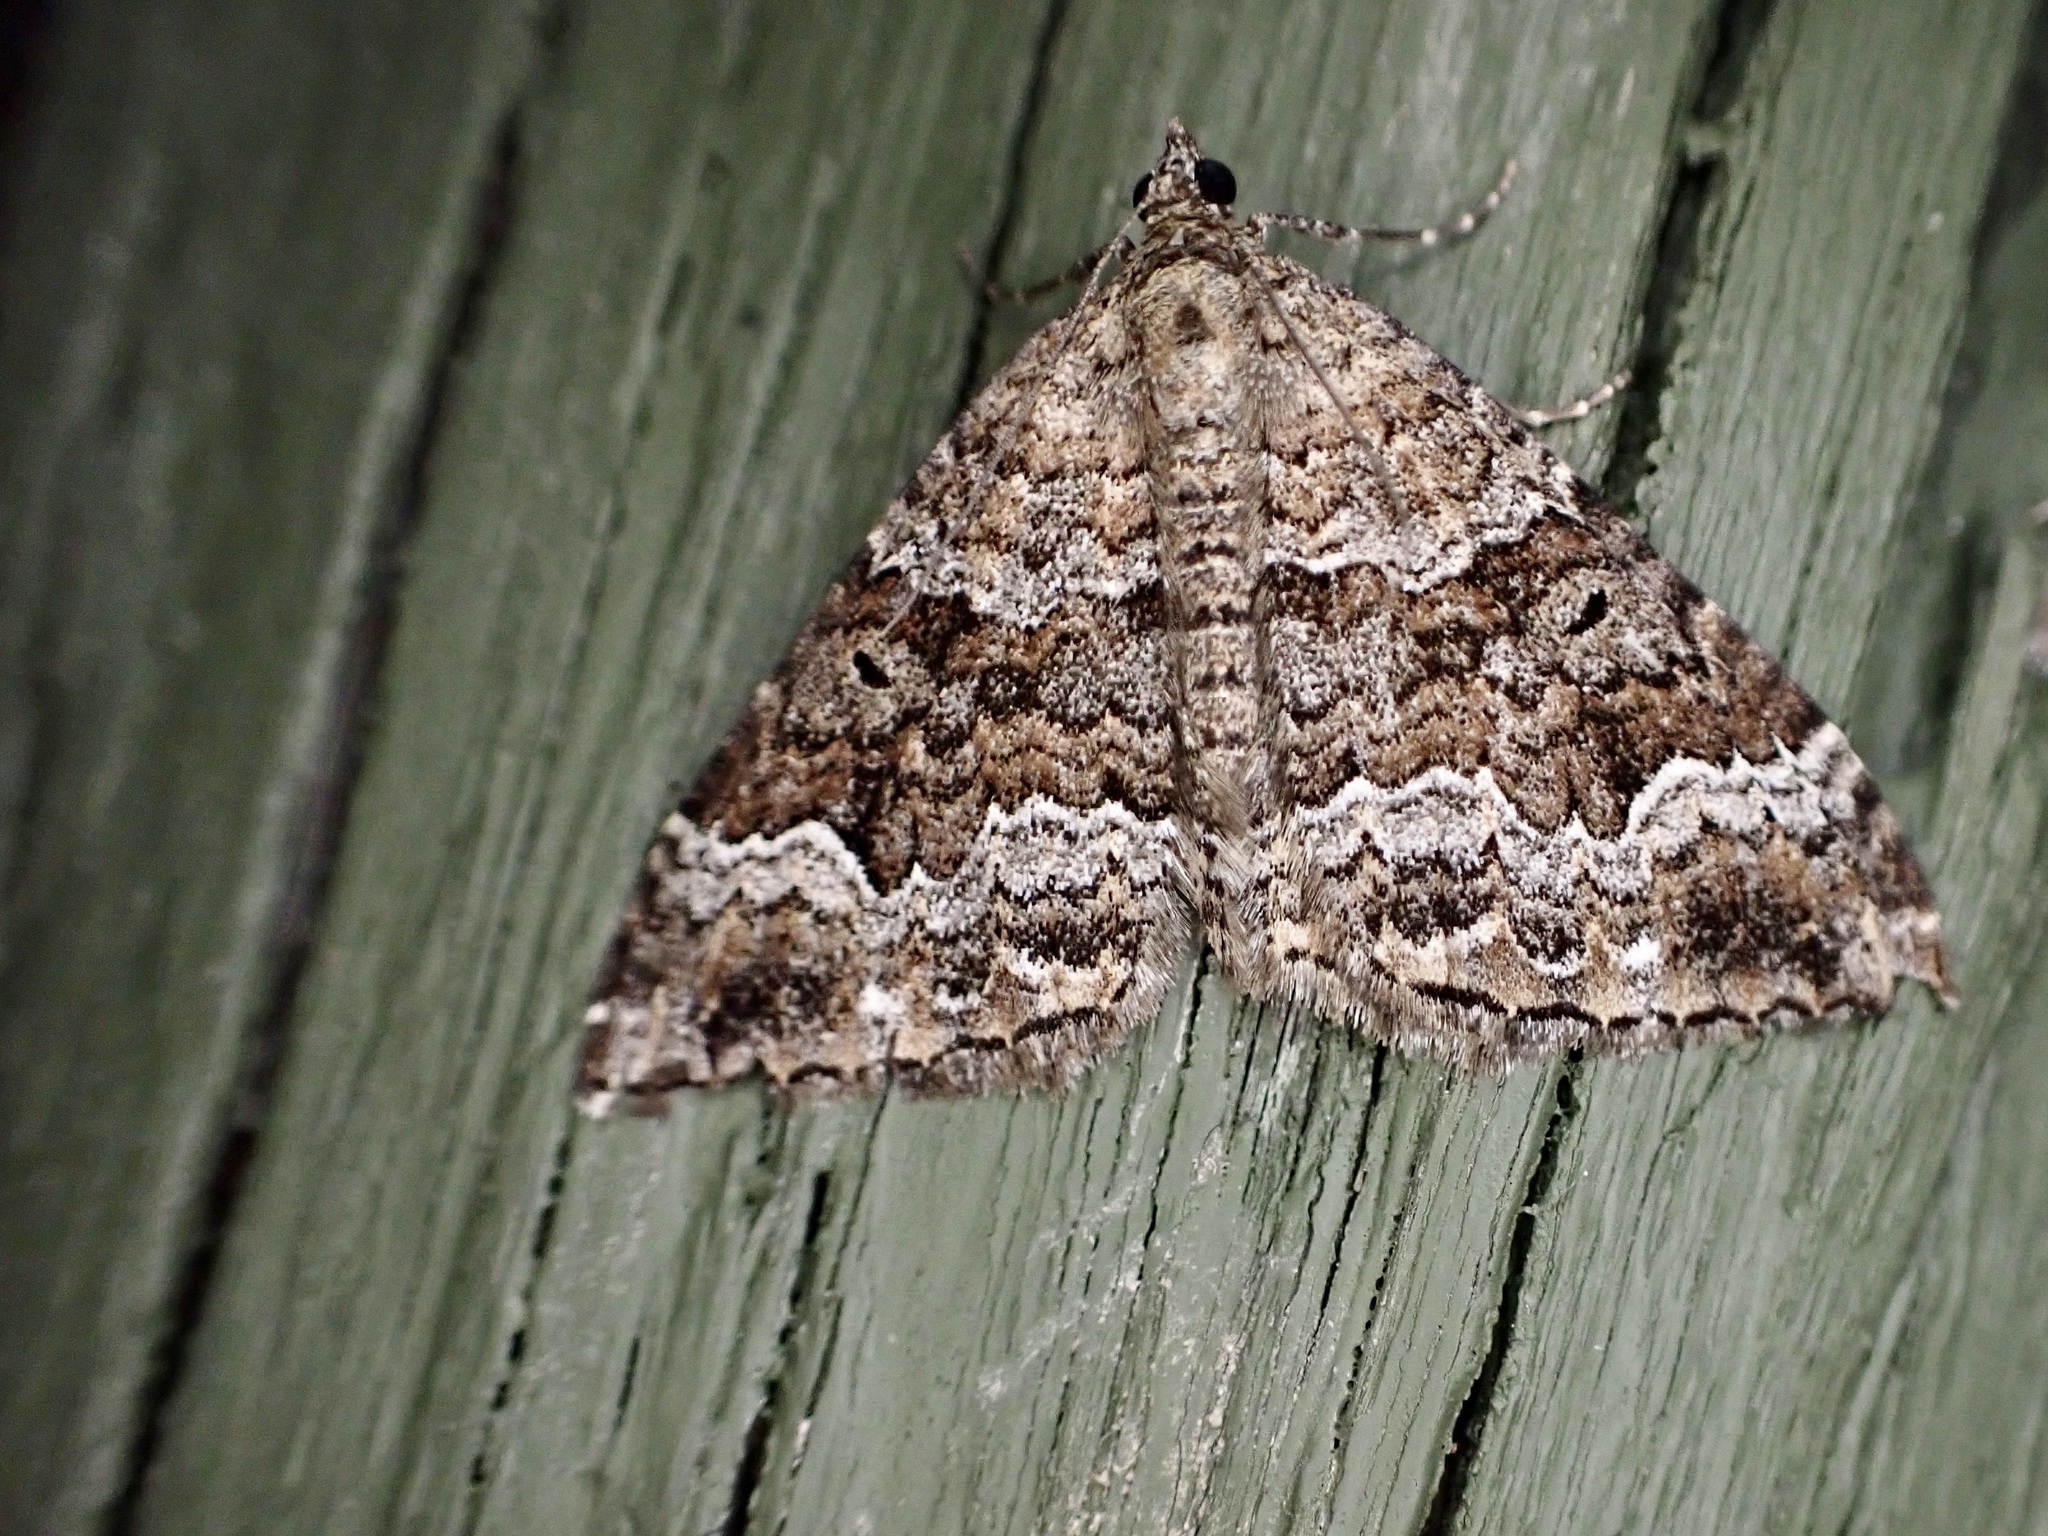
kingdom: Animalia
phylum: Arthropoda
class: Insecta
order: Lepidoptera
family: Geometridae
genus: Hydriomena
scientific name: Hydriomena deltoidata
